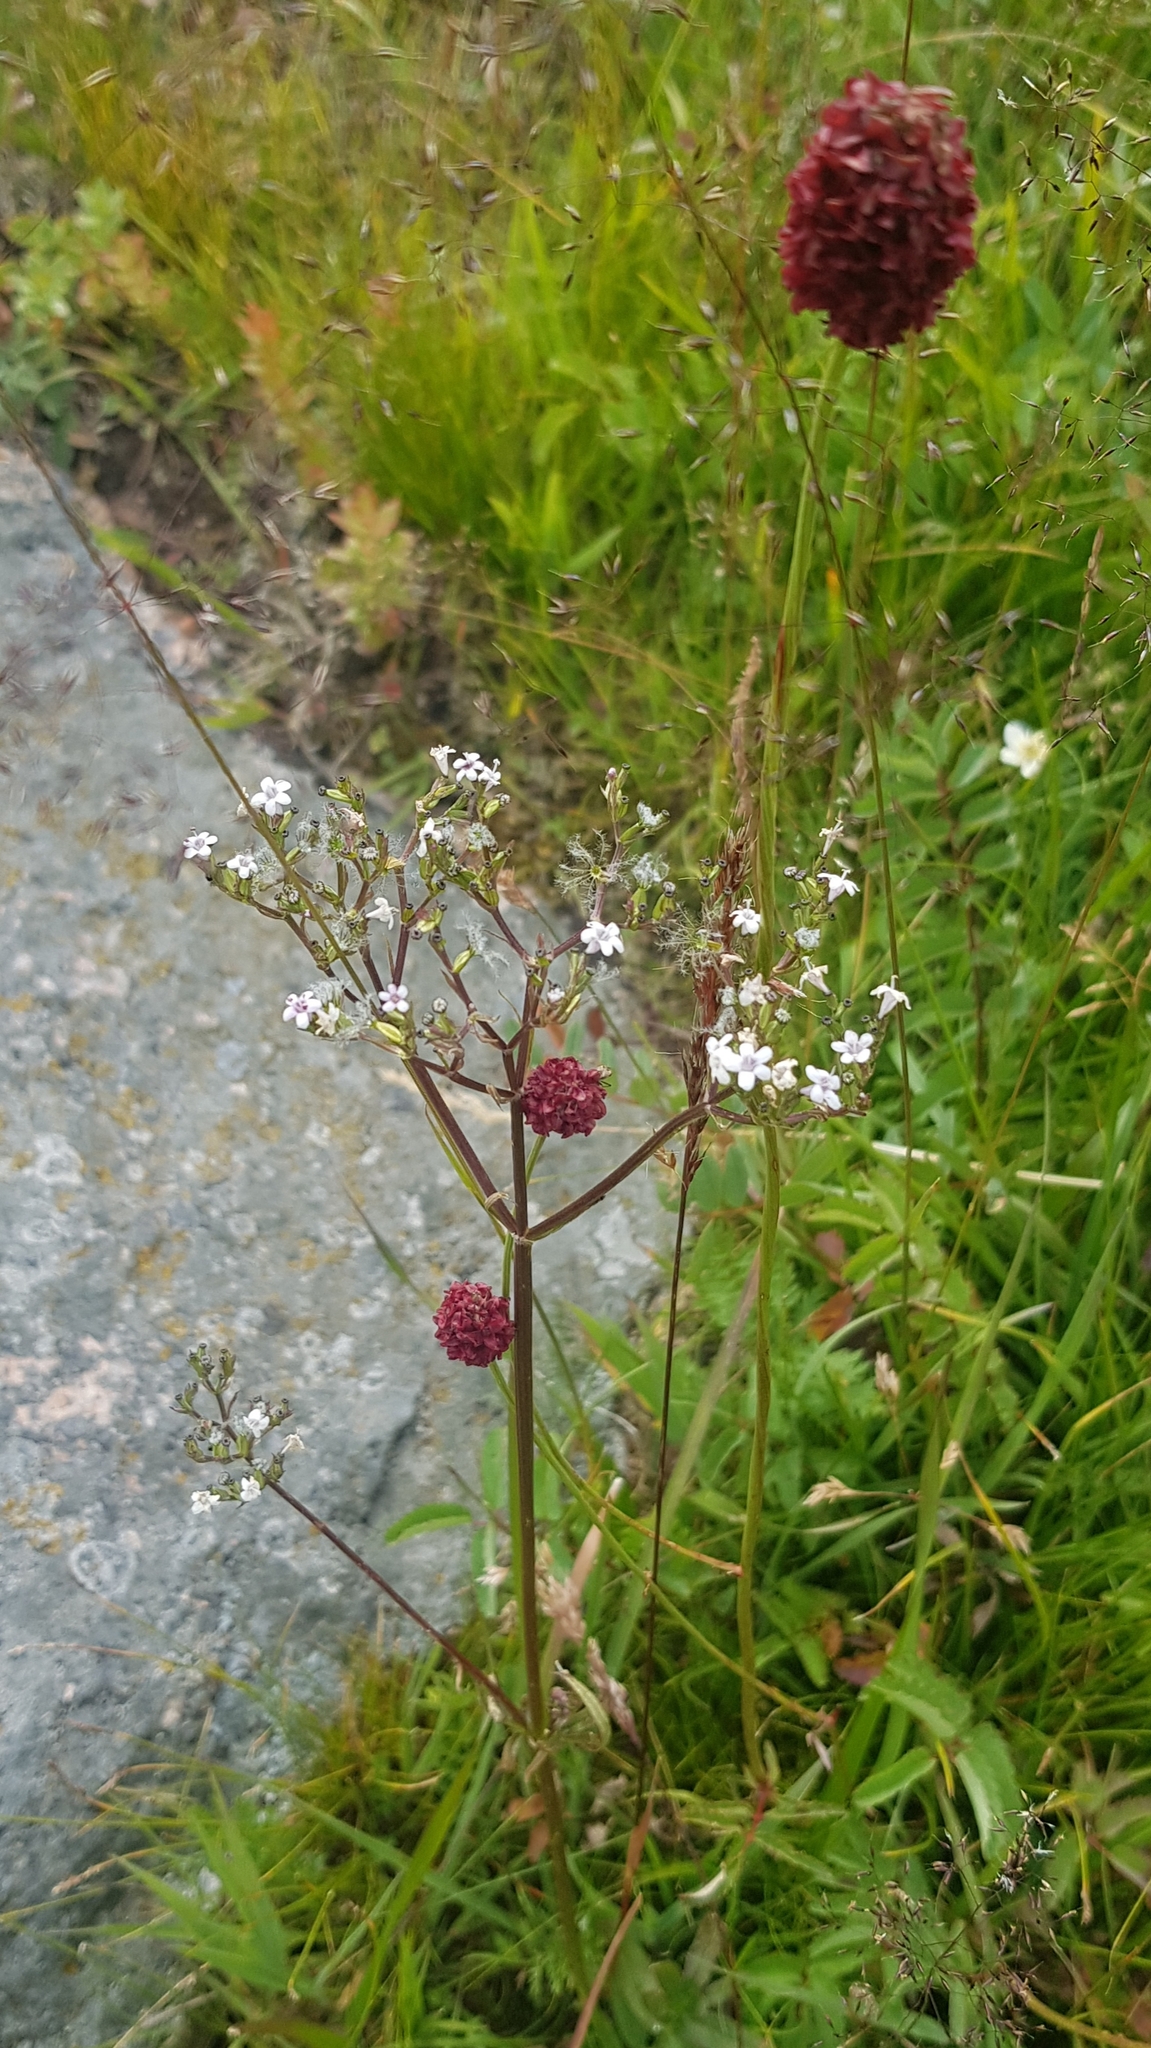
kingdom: Plantae
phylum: Tracheophyta
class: Magnoliopsida
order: Dipsacales
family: Caprifoliaceae
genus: Valeriana
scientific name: Valeriana officinalis
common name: Common valerian
